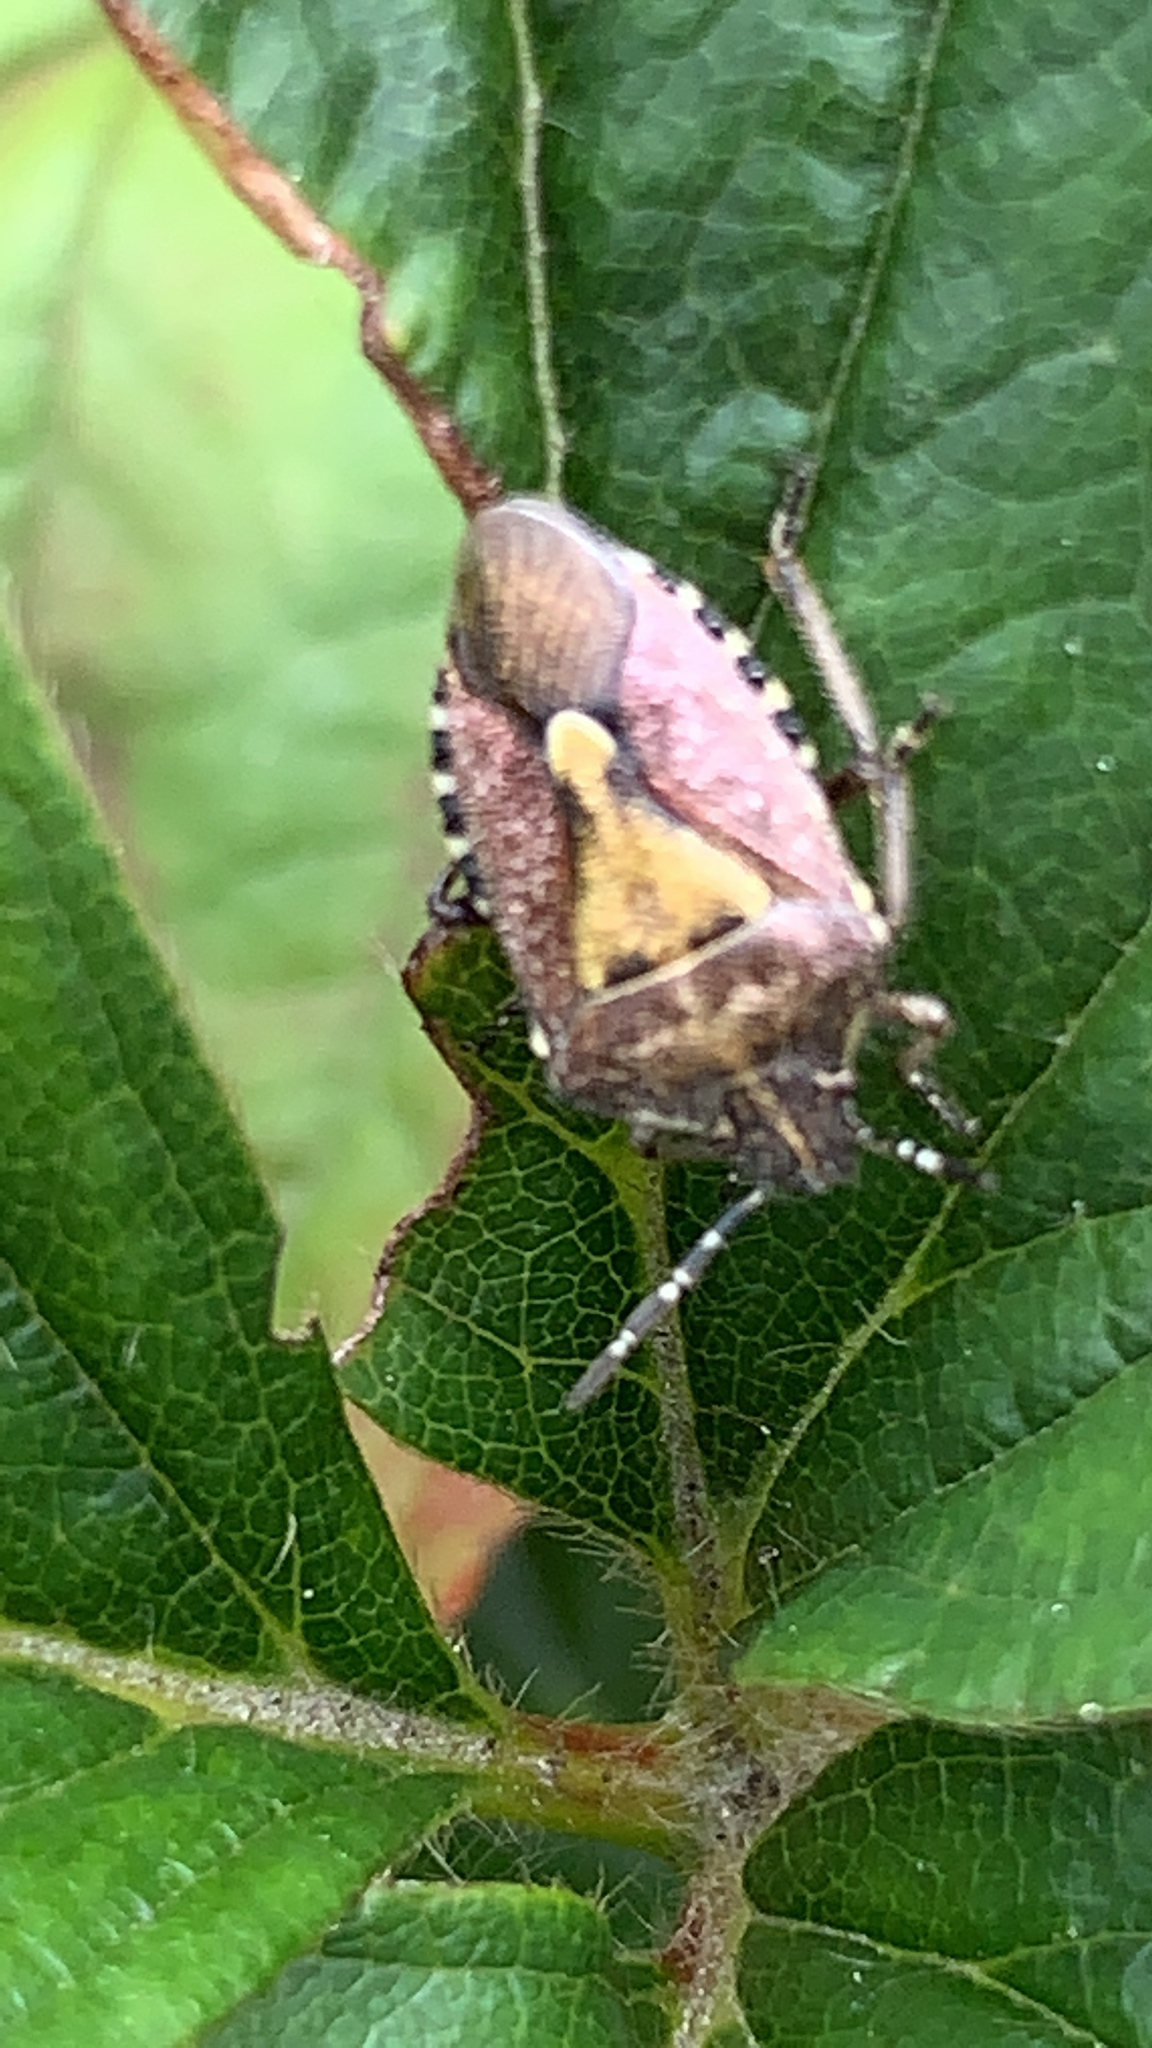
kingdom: Animalia
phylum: Arthropoda
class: Insecta
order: Hemiptera
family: Pentatomidae
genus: Dolycoris
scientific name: Dolycoris baccarum
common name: Sloe bug
